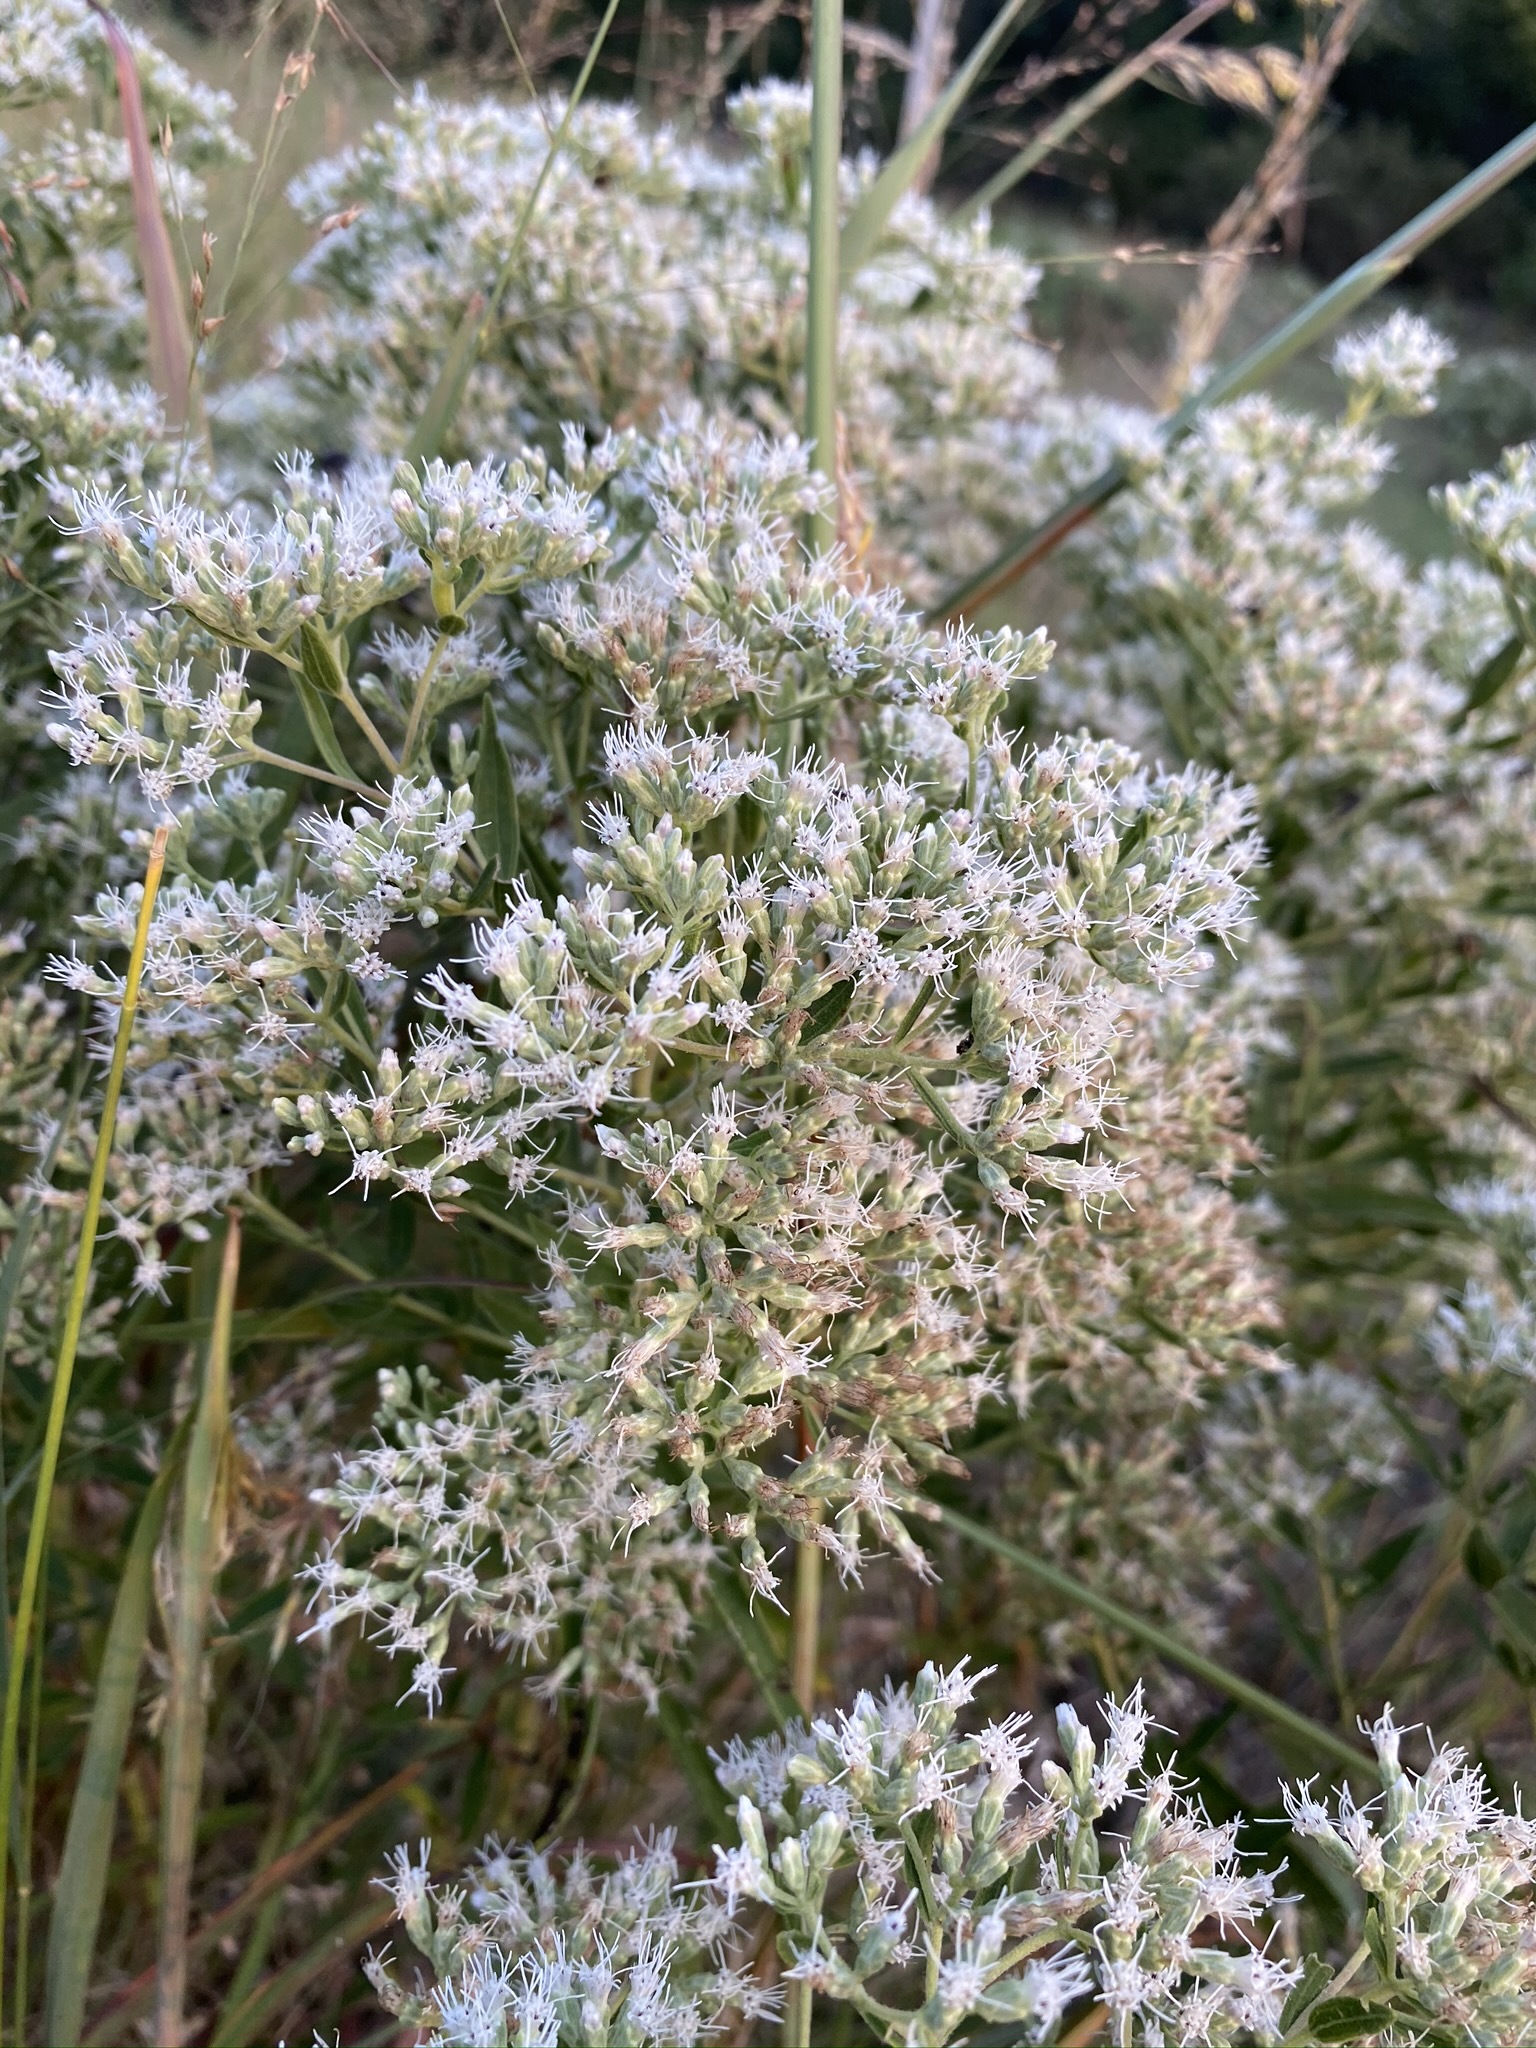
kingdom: Plantae
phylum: Tracheophyta
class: Magnoliopsida
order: Asterales
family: Asteraceae
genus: Eupatorium
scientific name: Eupatorium altissimum
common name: Tall thoroughwort
